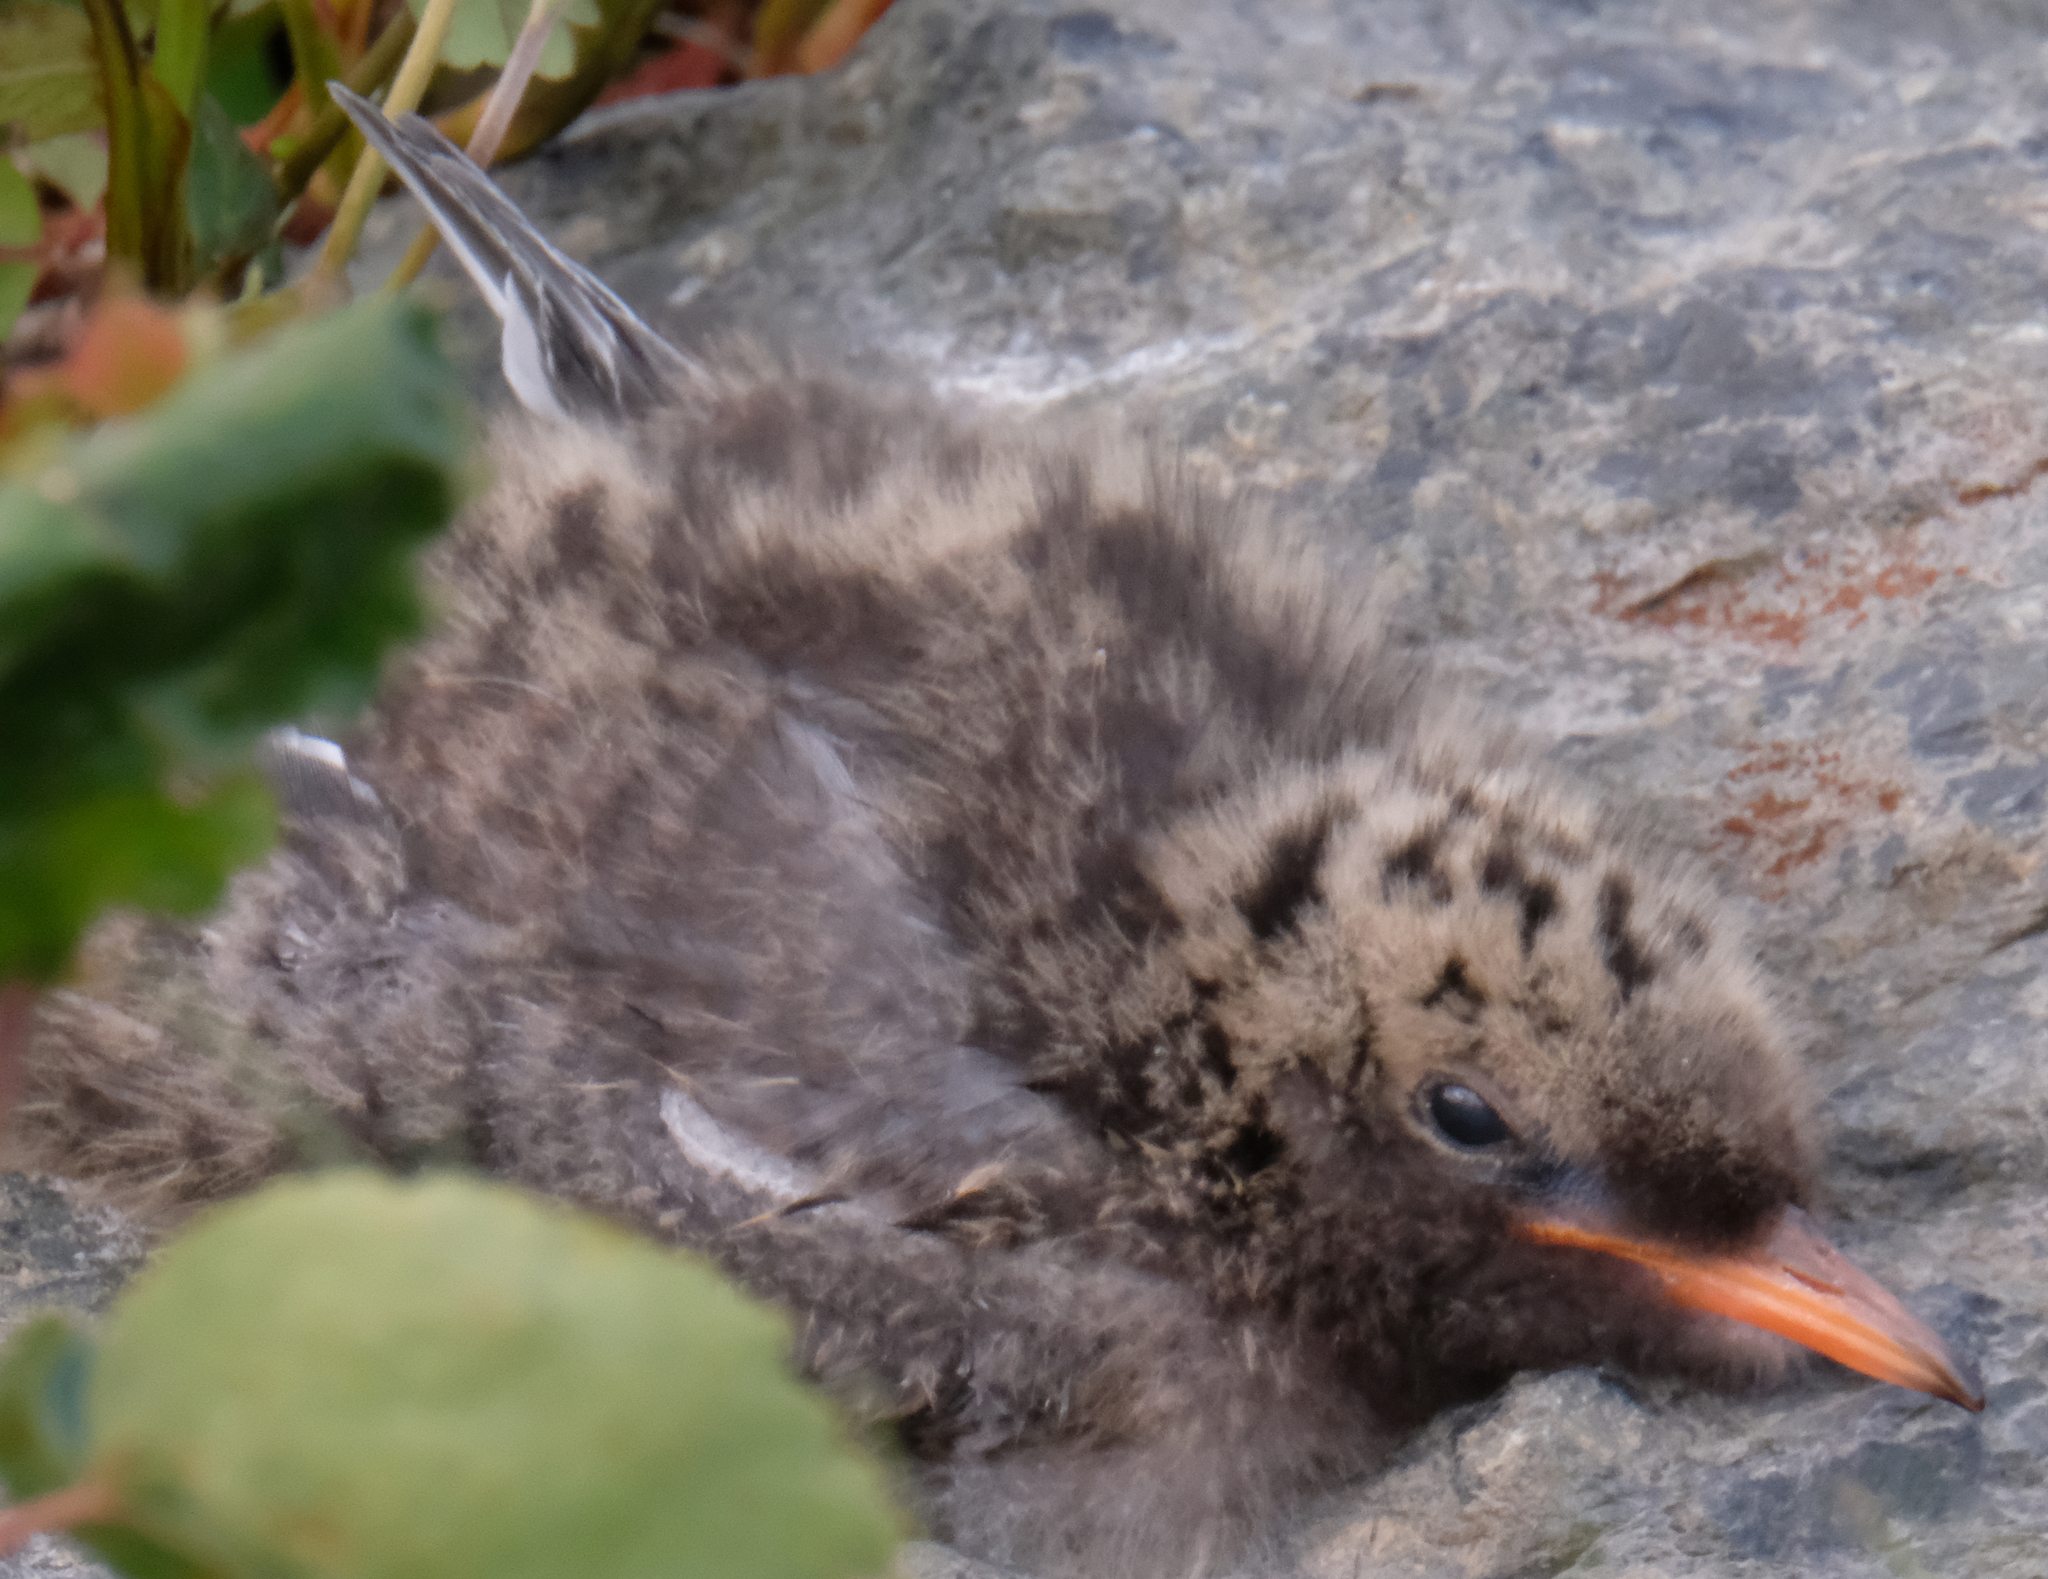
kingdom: Animalia
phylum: Chordata
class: Aves
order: Charadriiformes
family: Laridae
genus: Sterna
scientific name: Sterna paradisaea
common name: Arctic tern
